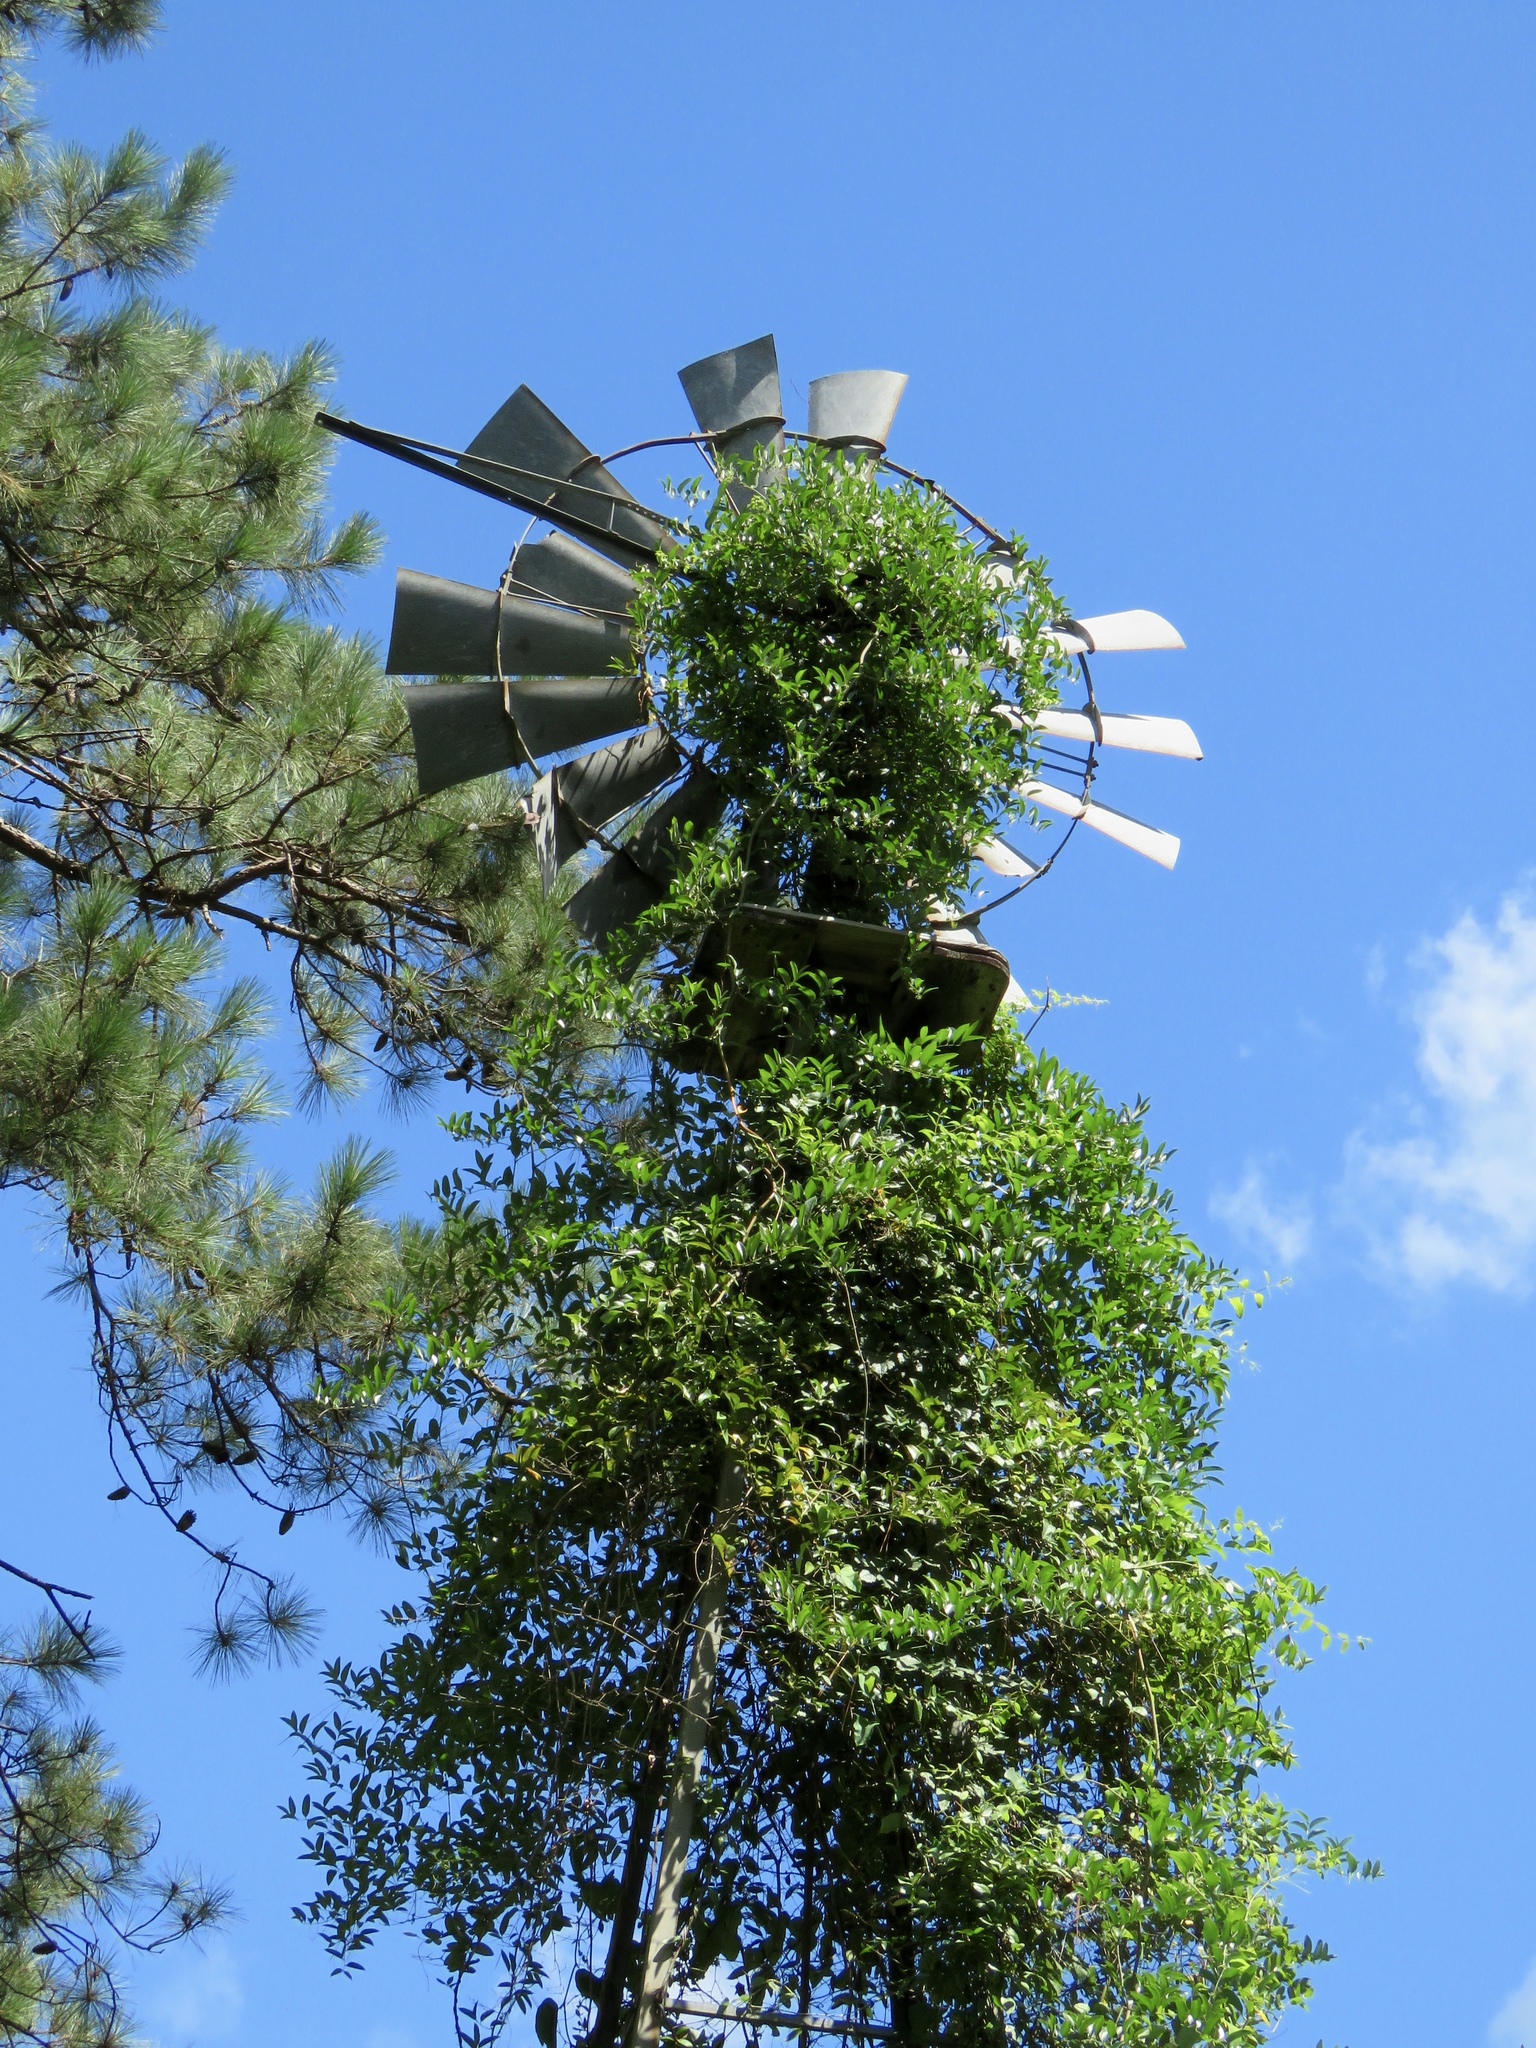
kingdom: Plantae
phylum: Tracheophyta
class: Liliopsida
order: Liliales
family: Smilacaceae
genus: Smilax
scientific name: Smilax maritima
